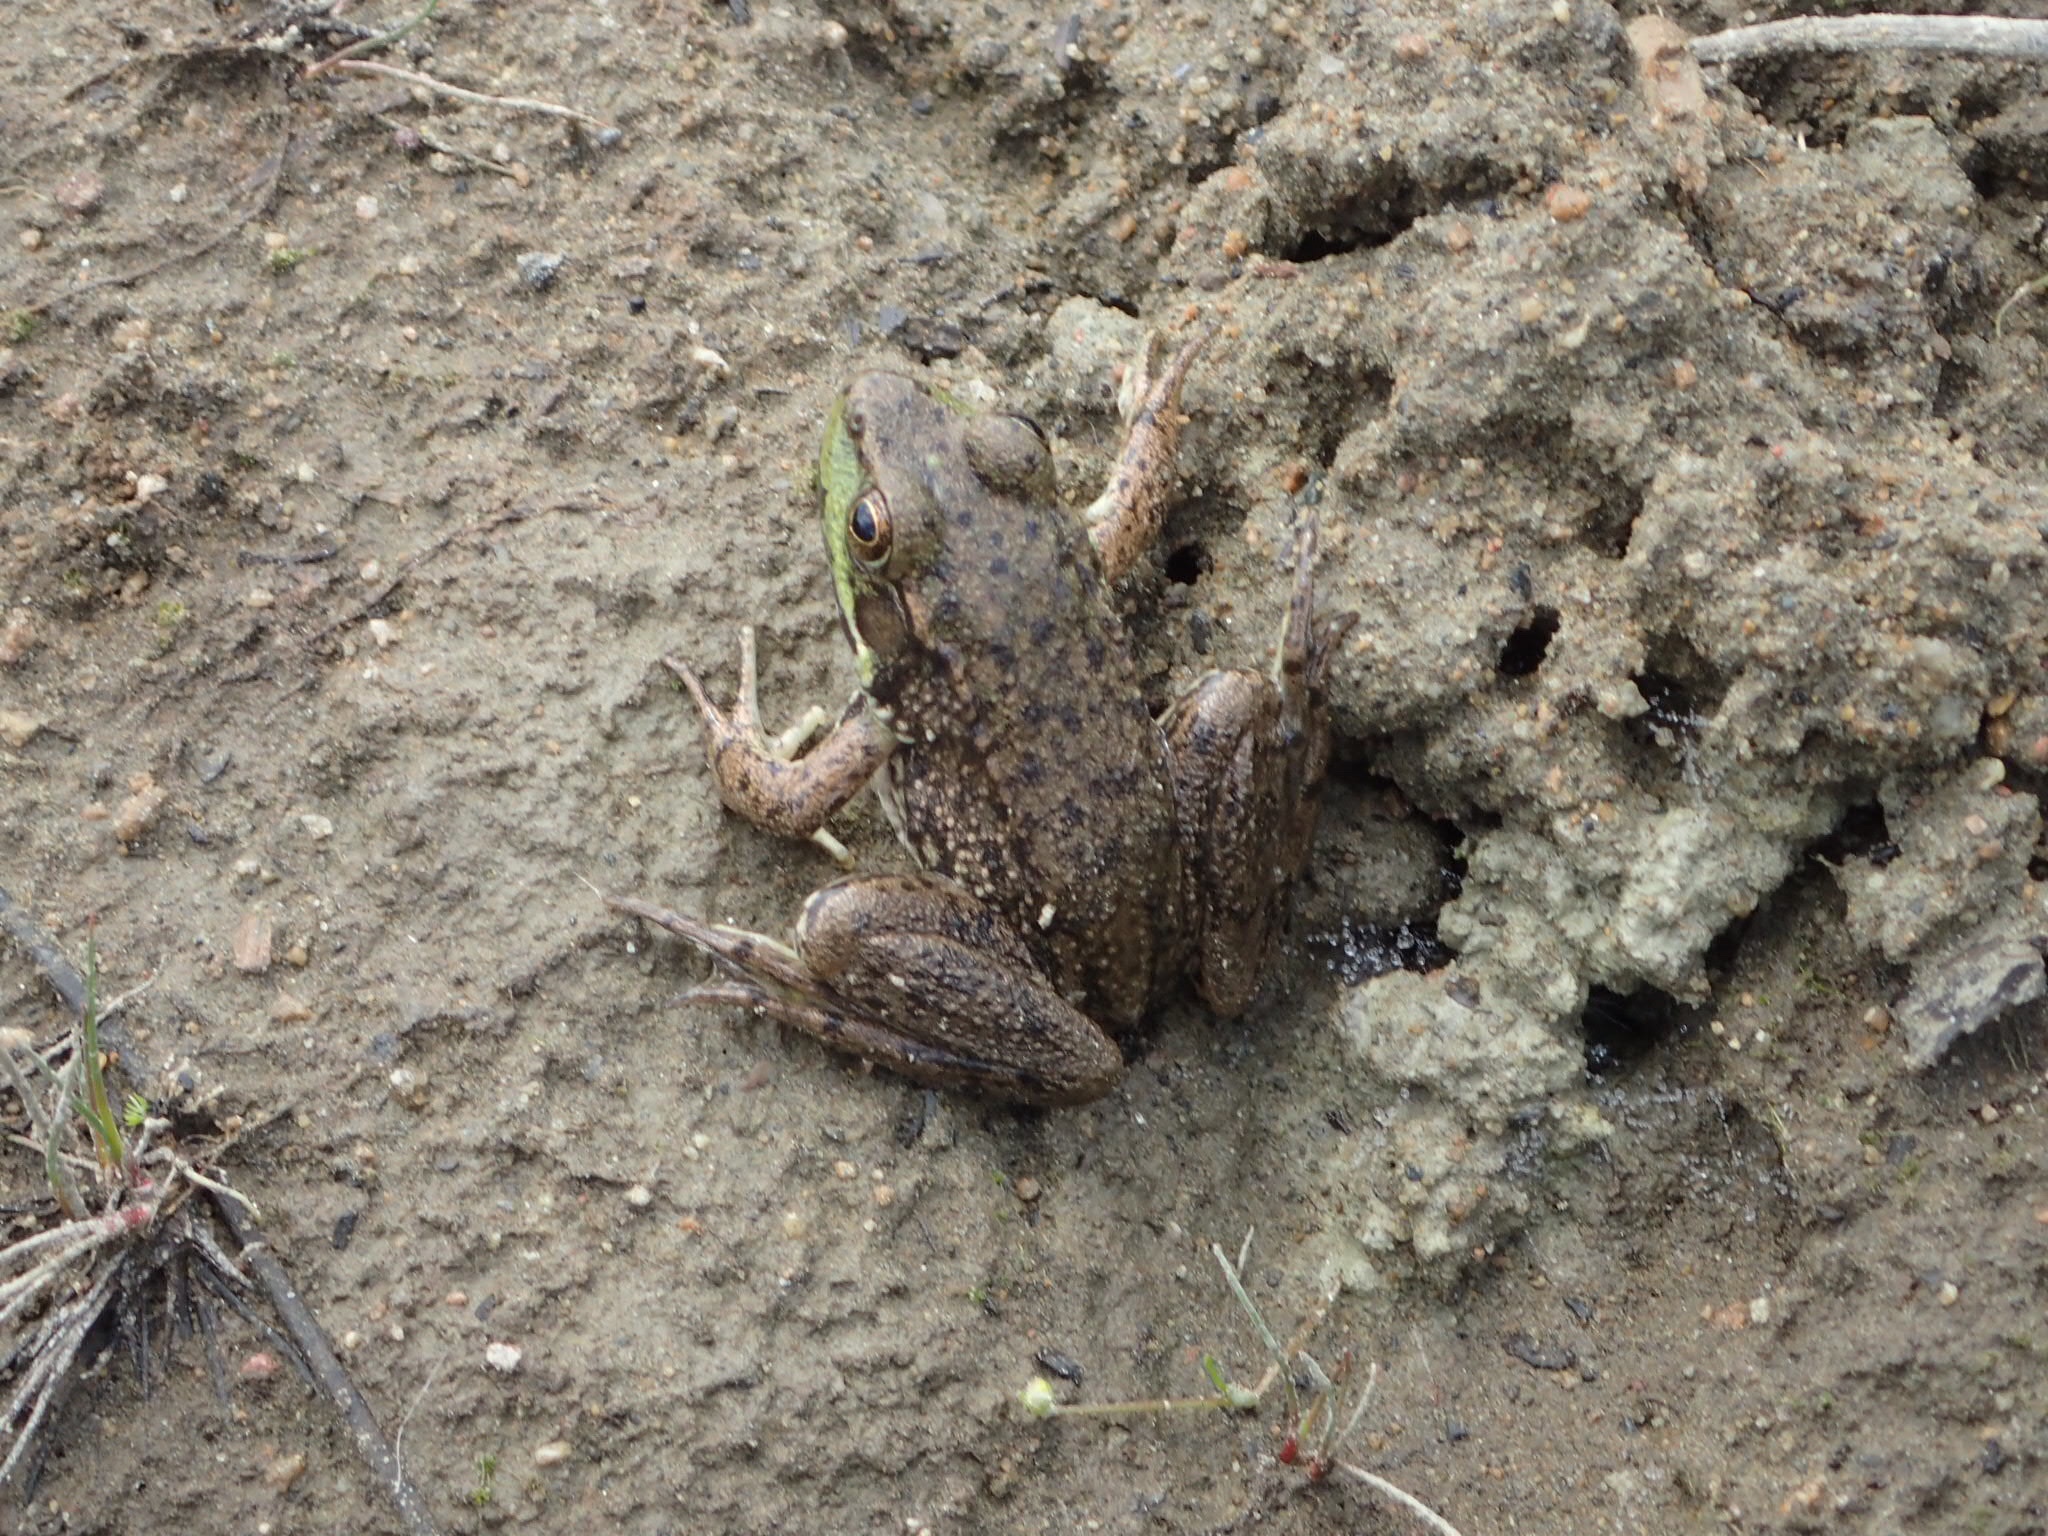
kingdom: Animalia
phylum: Chordata
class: Amphibia
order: Anura
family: Ranidae
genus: Lithobates
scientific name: Lithobates clamitans
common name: Green frog
